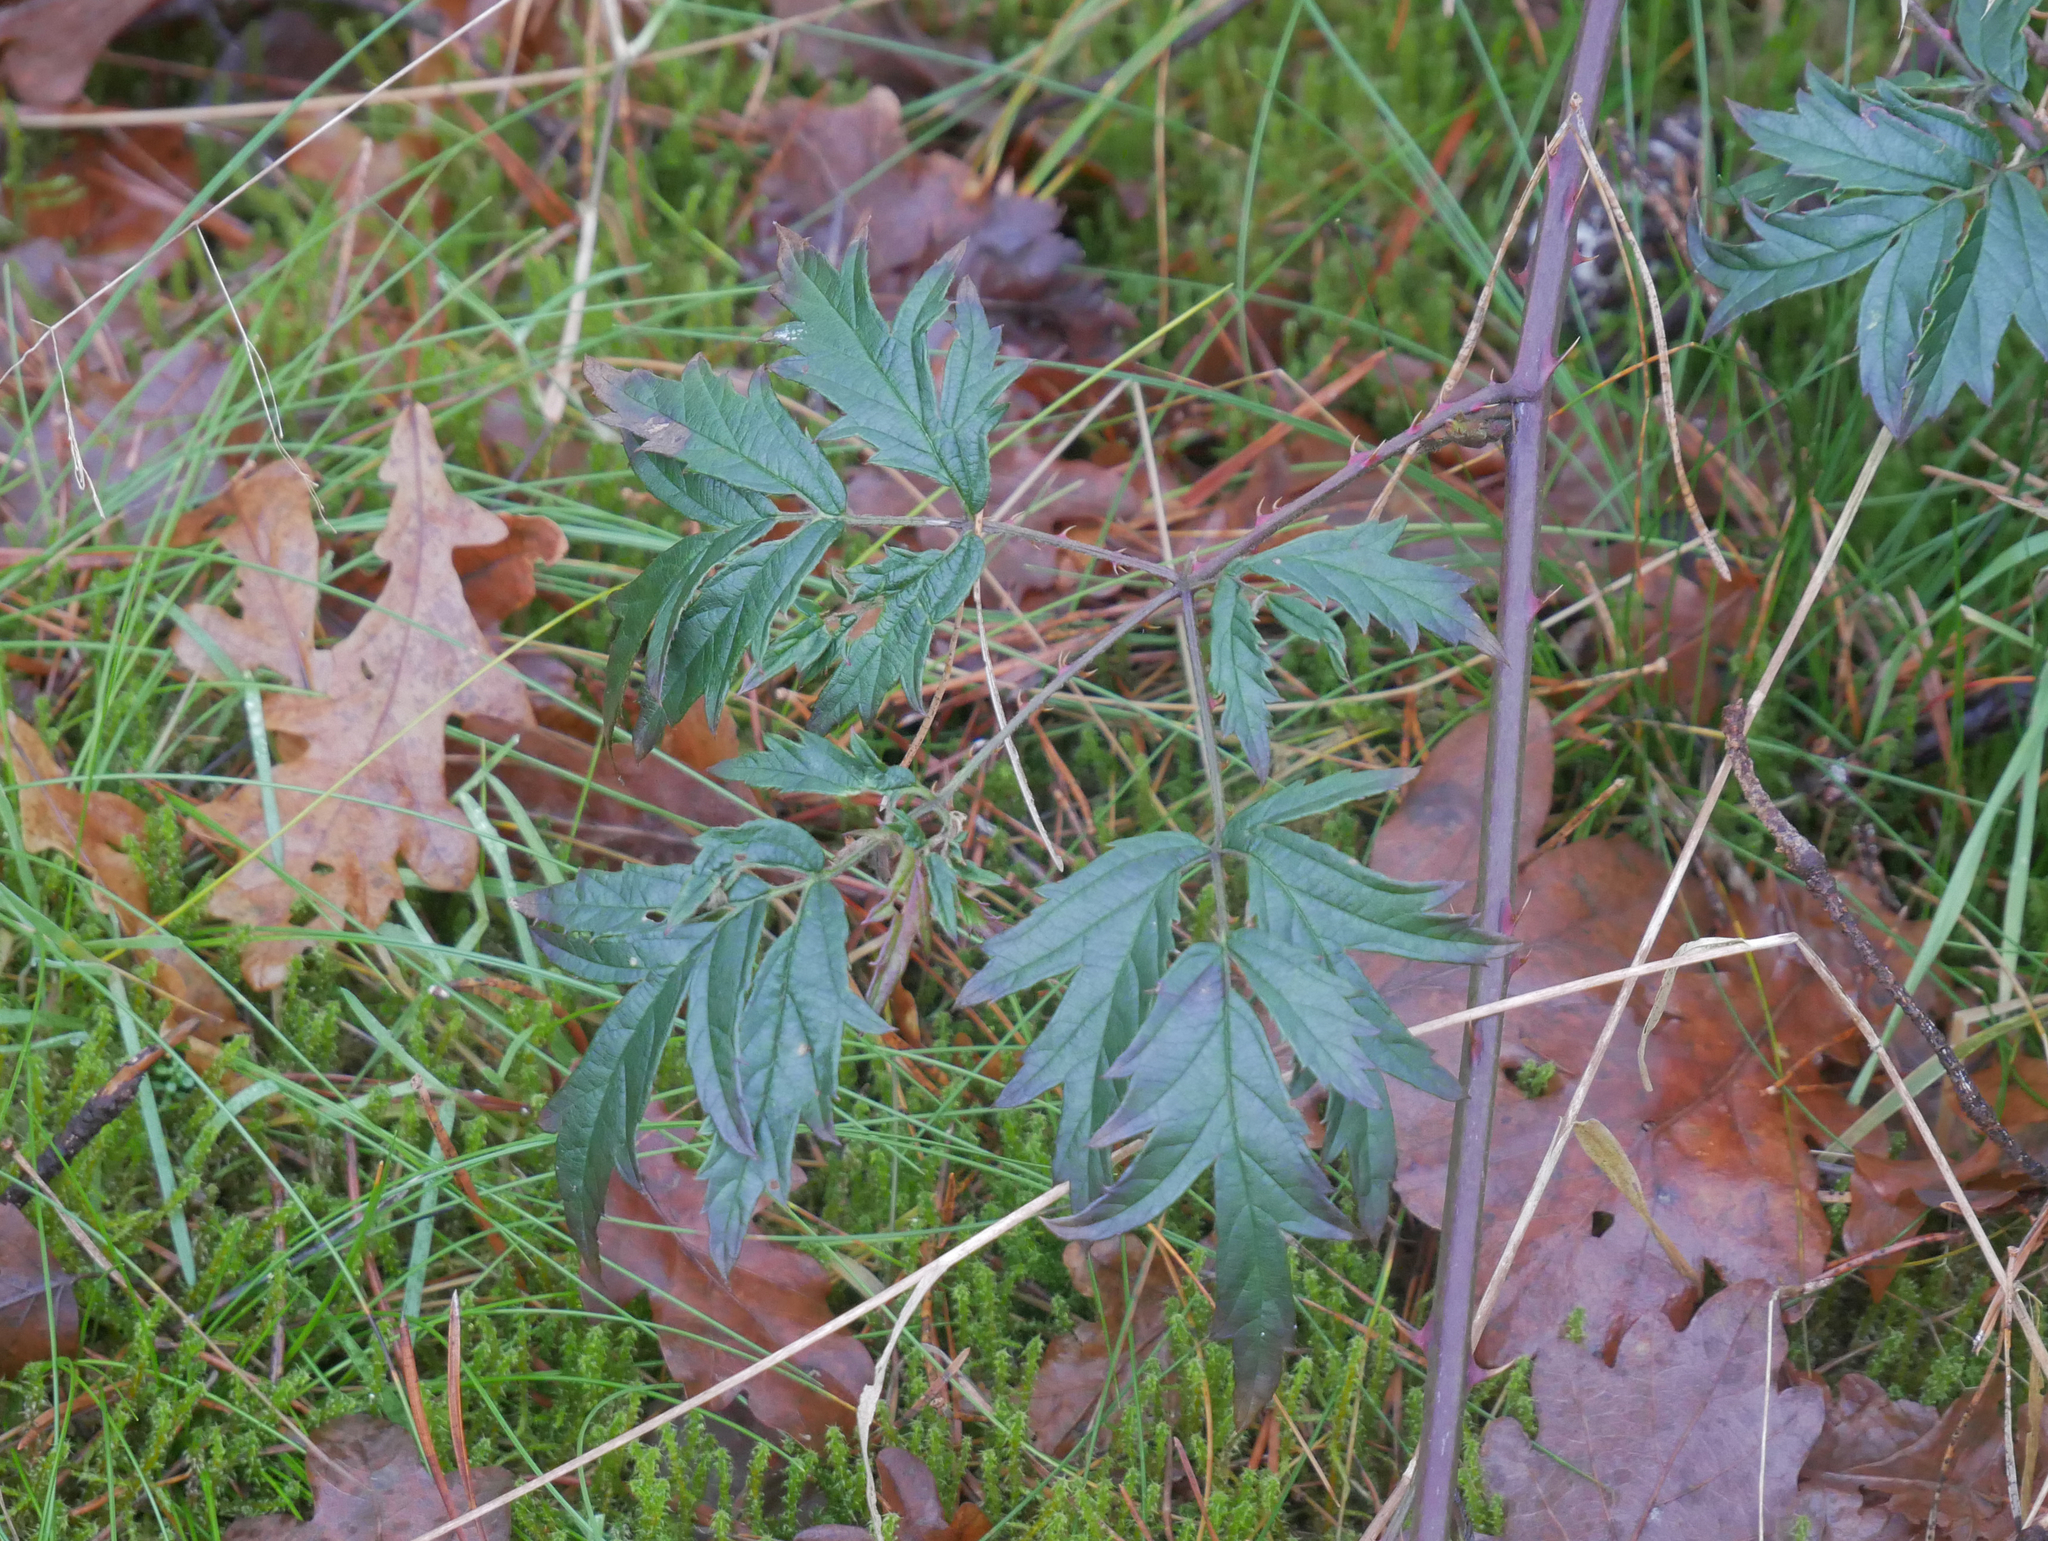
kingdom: Plantae
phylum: Tracheophyta
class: Magnoliopsida
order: Rosales
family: Rosaceae
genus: Rubus
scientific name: Rubus laciniatus
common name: Evergreen blackberry
